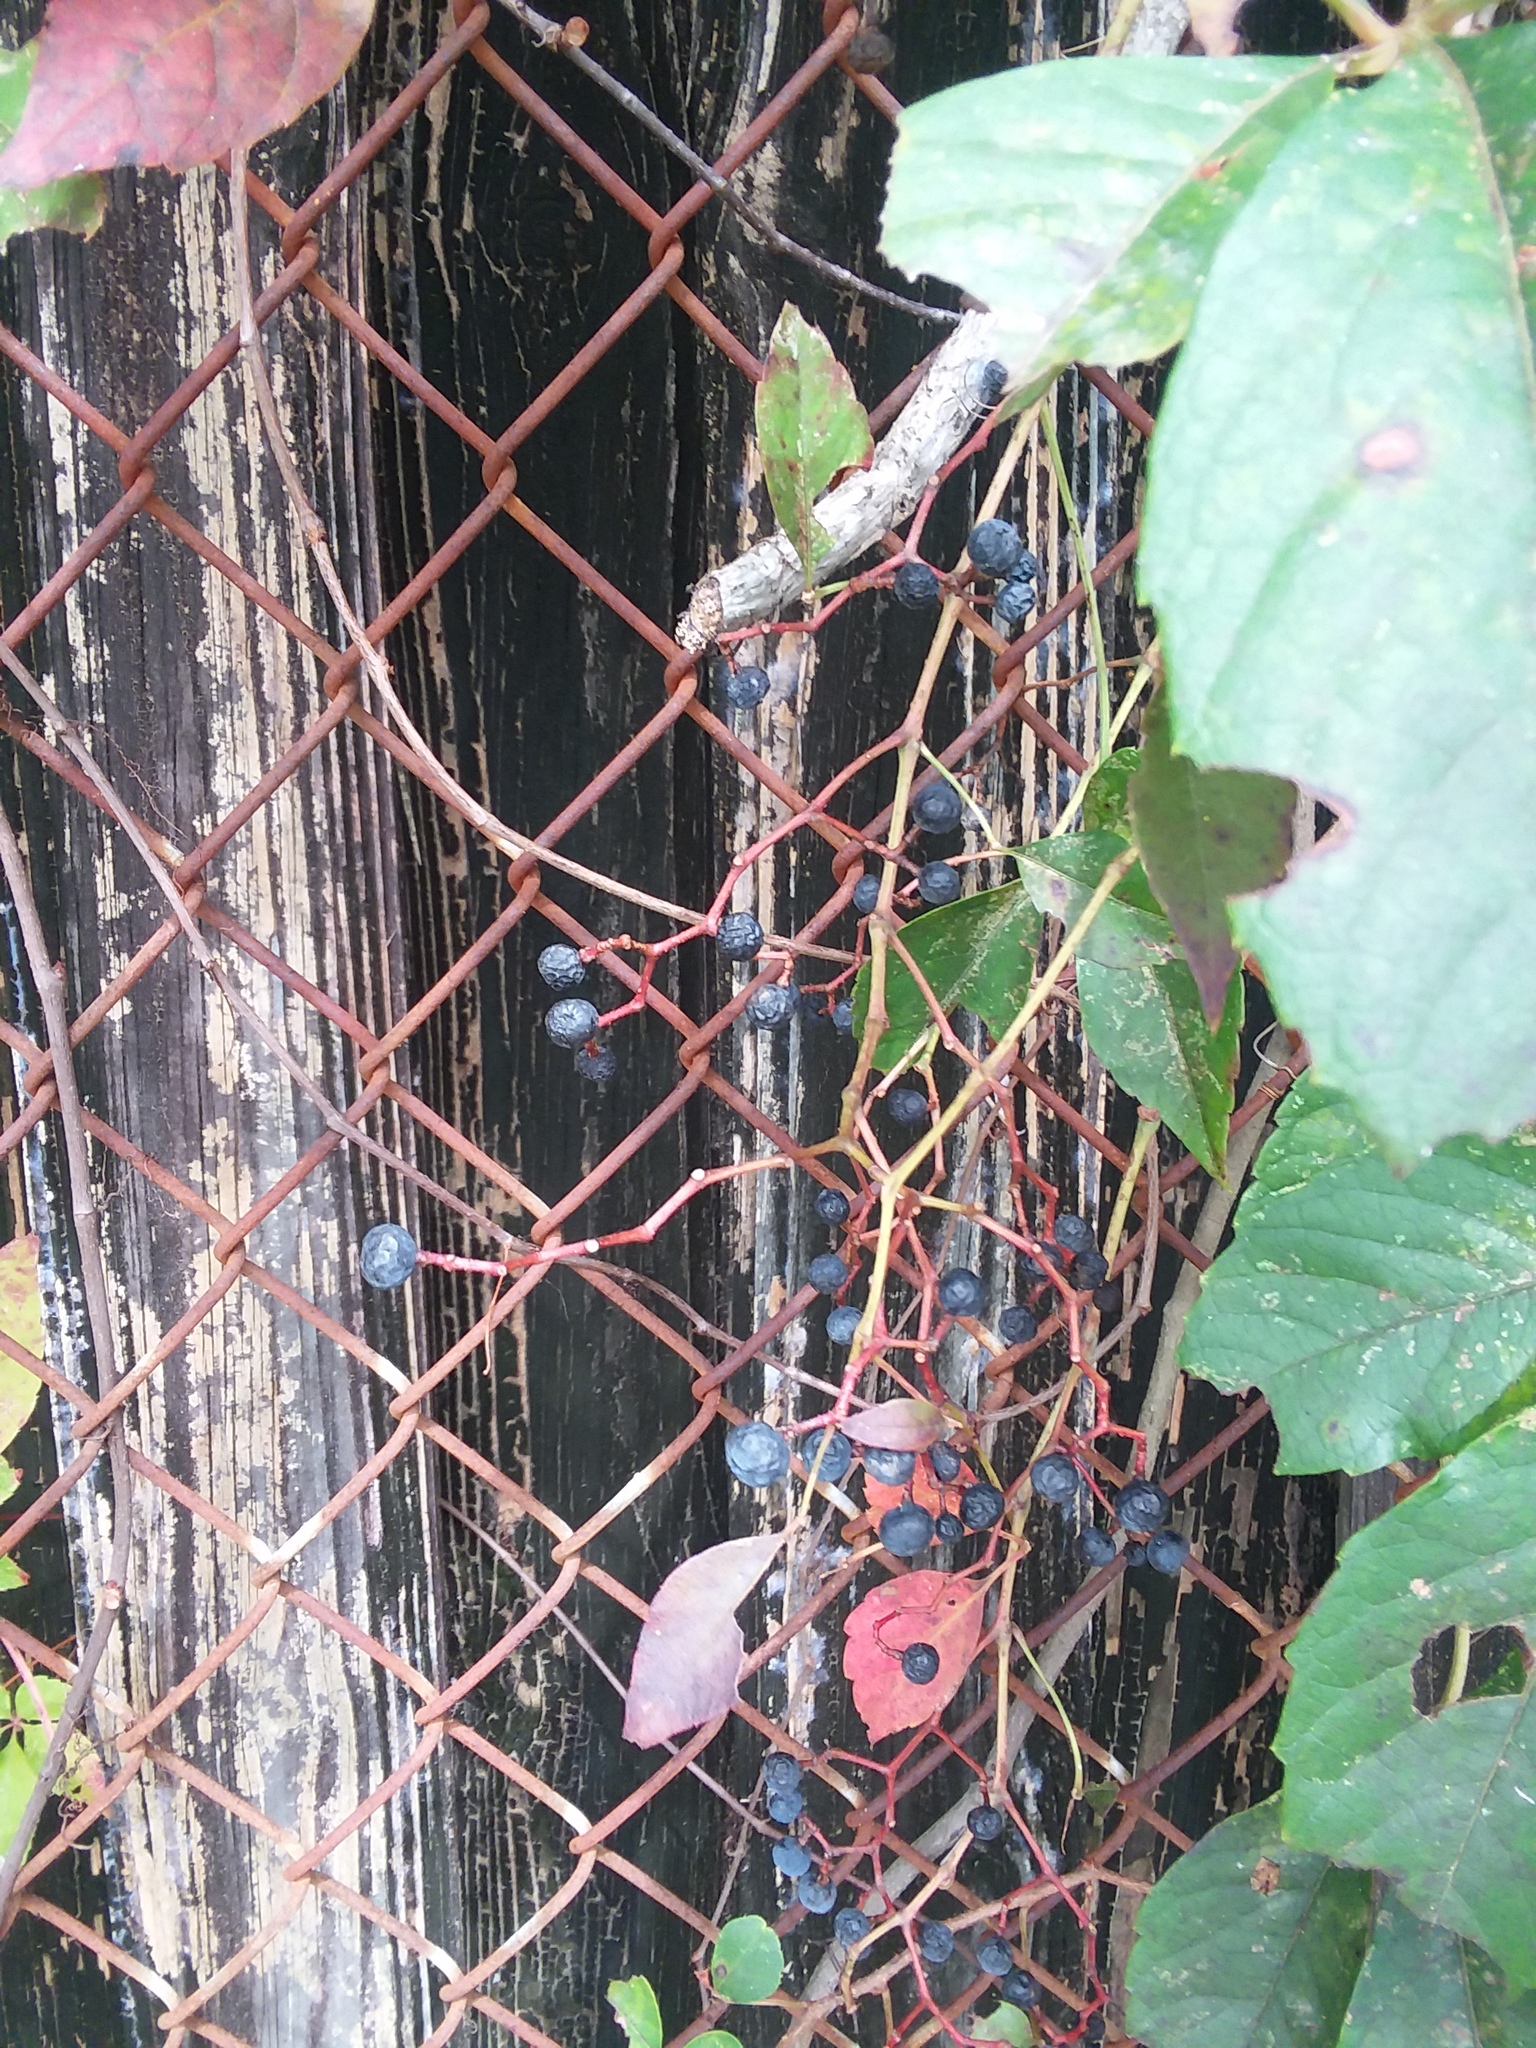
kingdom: Plantae
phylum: Tracheophyta
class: Magnoliopsida
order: Vitales
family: Vitaceae
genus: Parthenocissus
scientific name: Parthenocissus quinquefolia
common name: Virginia-creeper
